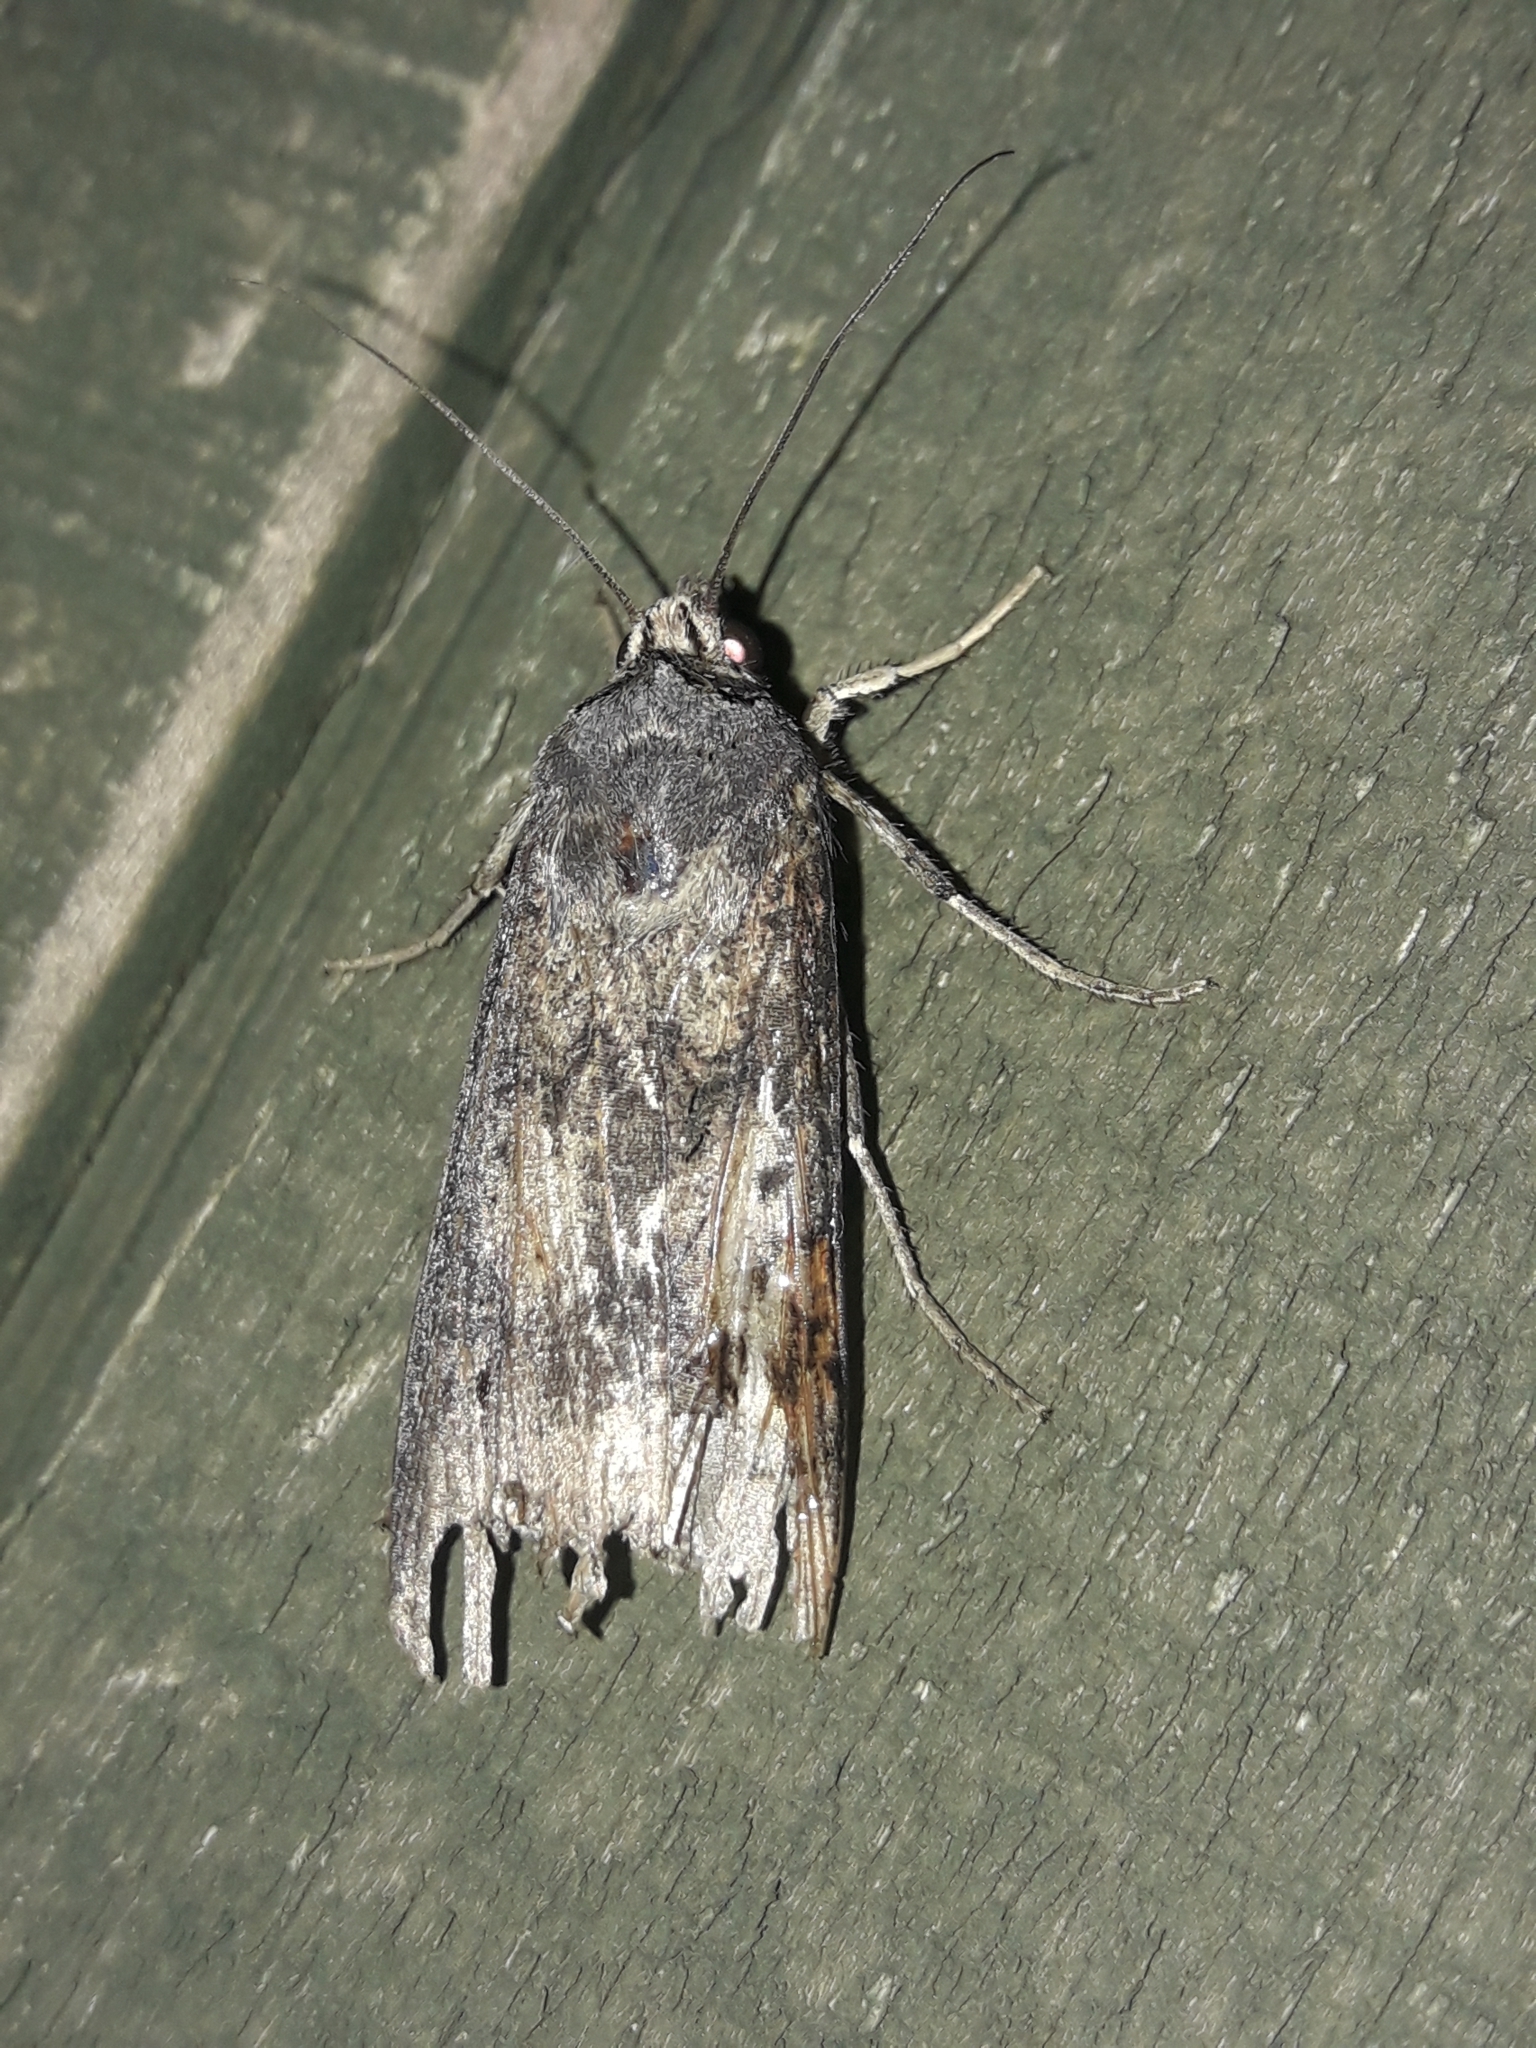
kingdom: Animalia
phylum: Arthropoda
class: Insecta
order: Lepidoptera
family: Noctuidae
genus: Agrotis
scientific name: Agrotis ipsilon
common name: Dark sword-grass
